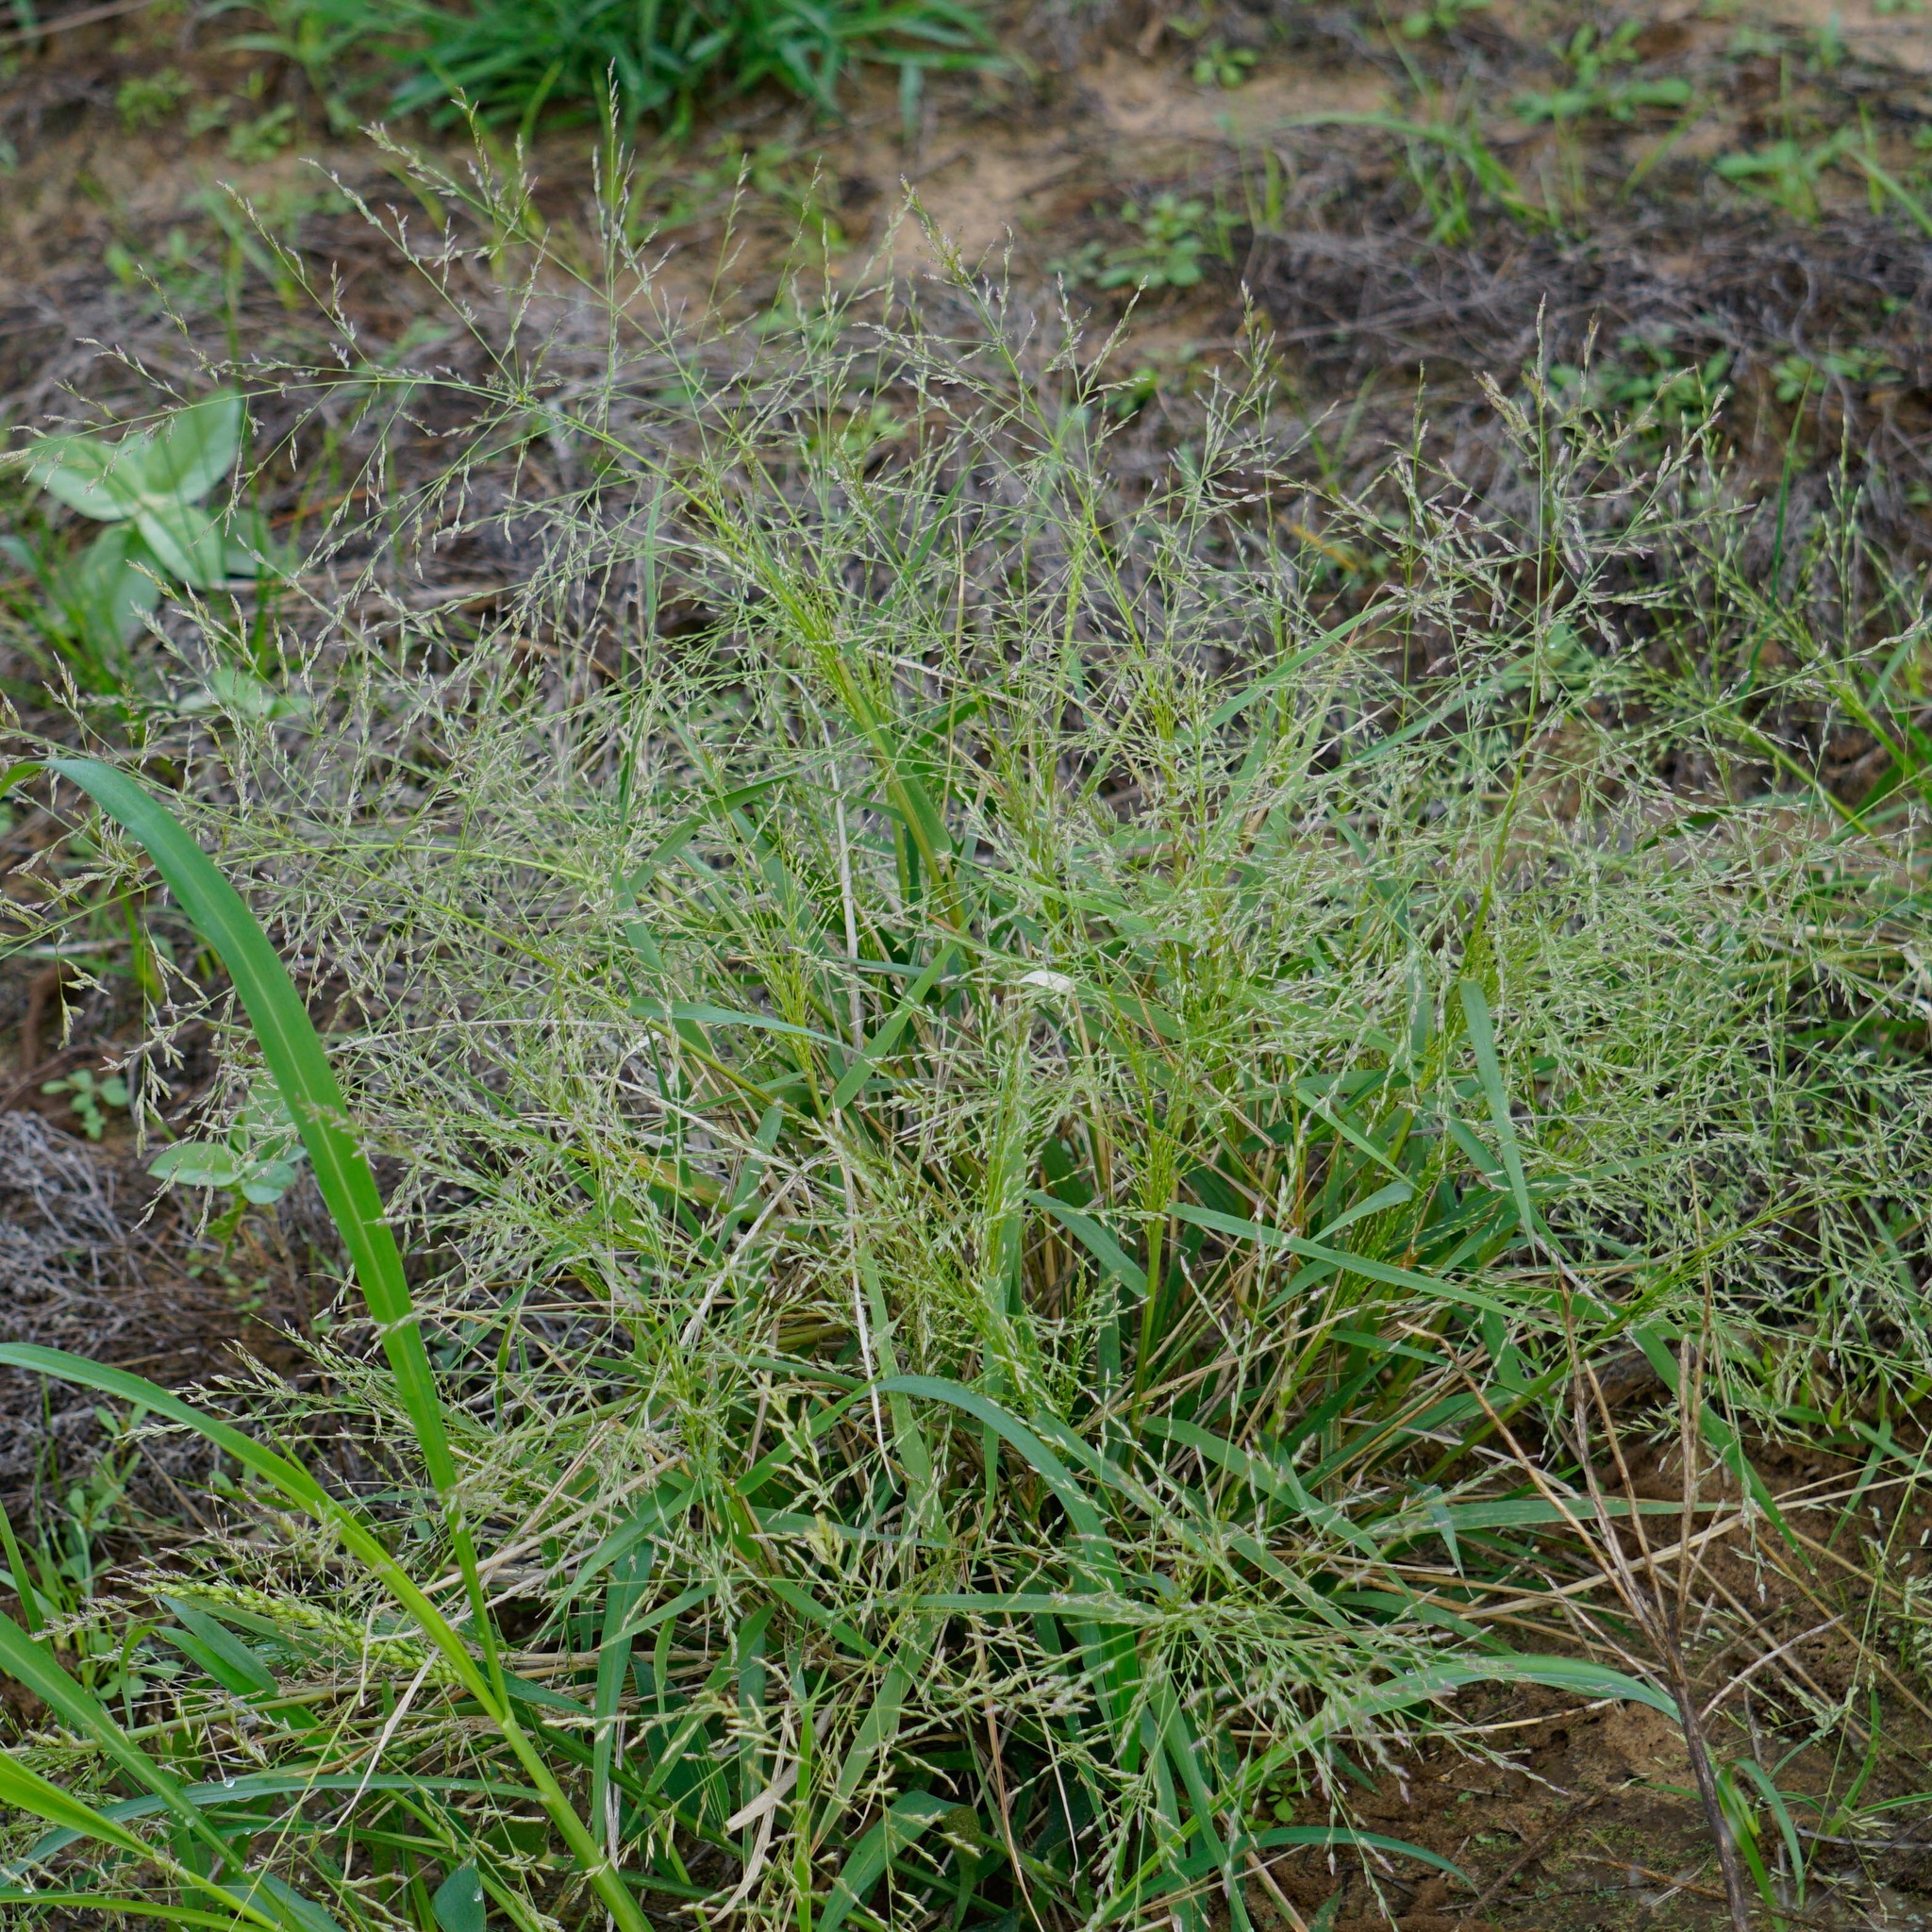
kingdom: Plantae
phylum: Tracheophyta
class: Liliopsida
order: Poales
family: Poaceae
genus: Eragrostis
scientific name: Eragrostis spectabilis
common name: Petticoat-climber
